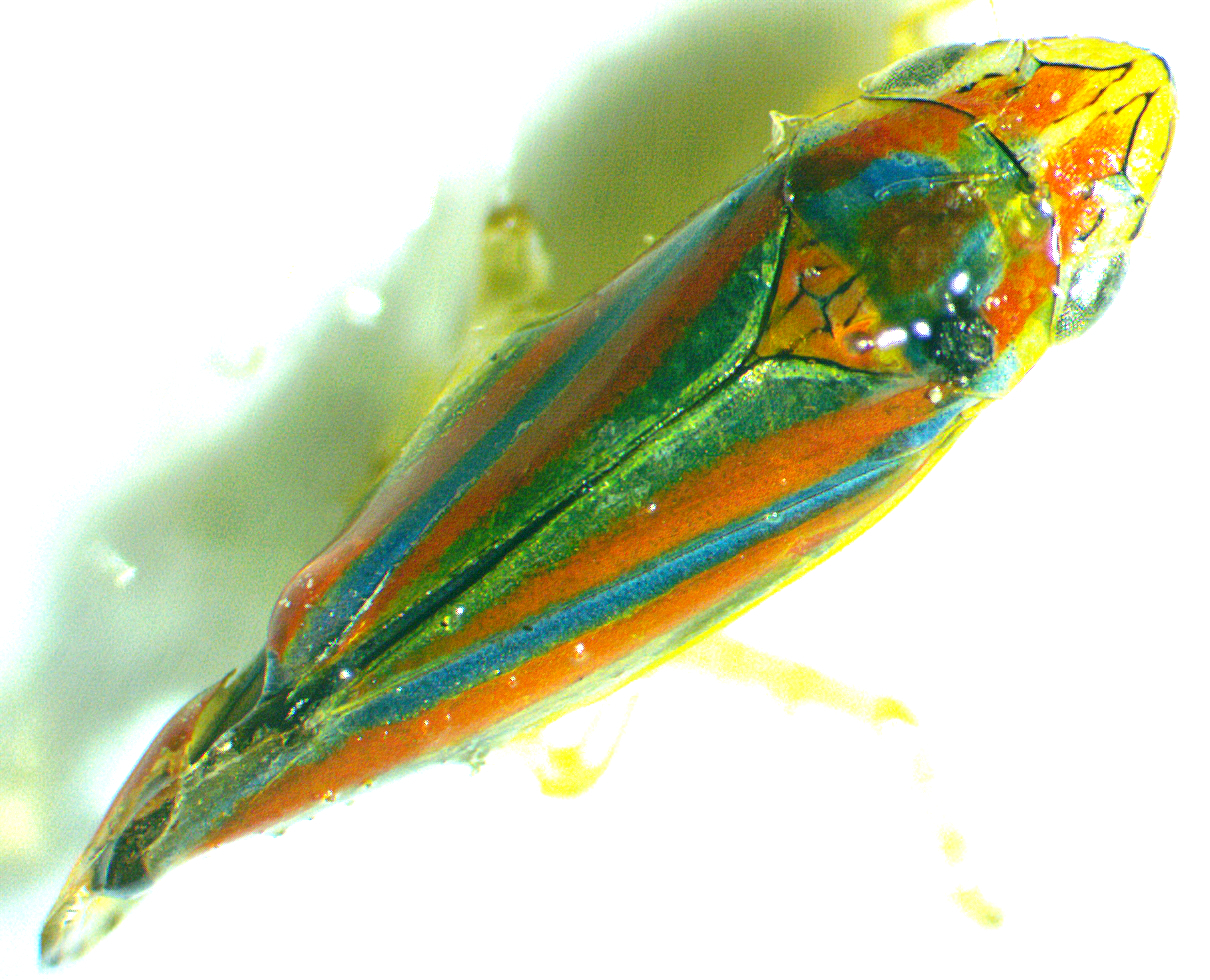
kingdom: Animalia
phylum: Arthropoda
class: Insecta
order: Hemiptera
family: Cicadellidae
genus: Graphocephala
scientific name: Graphocephala versuta
